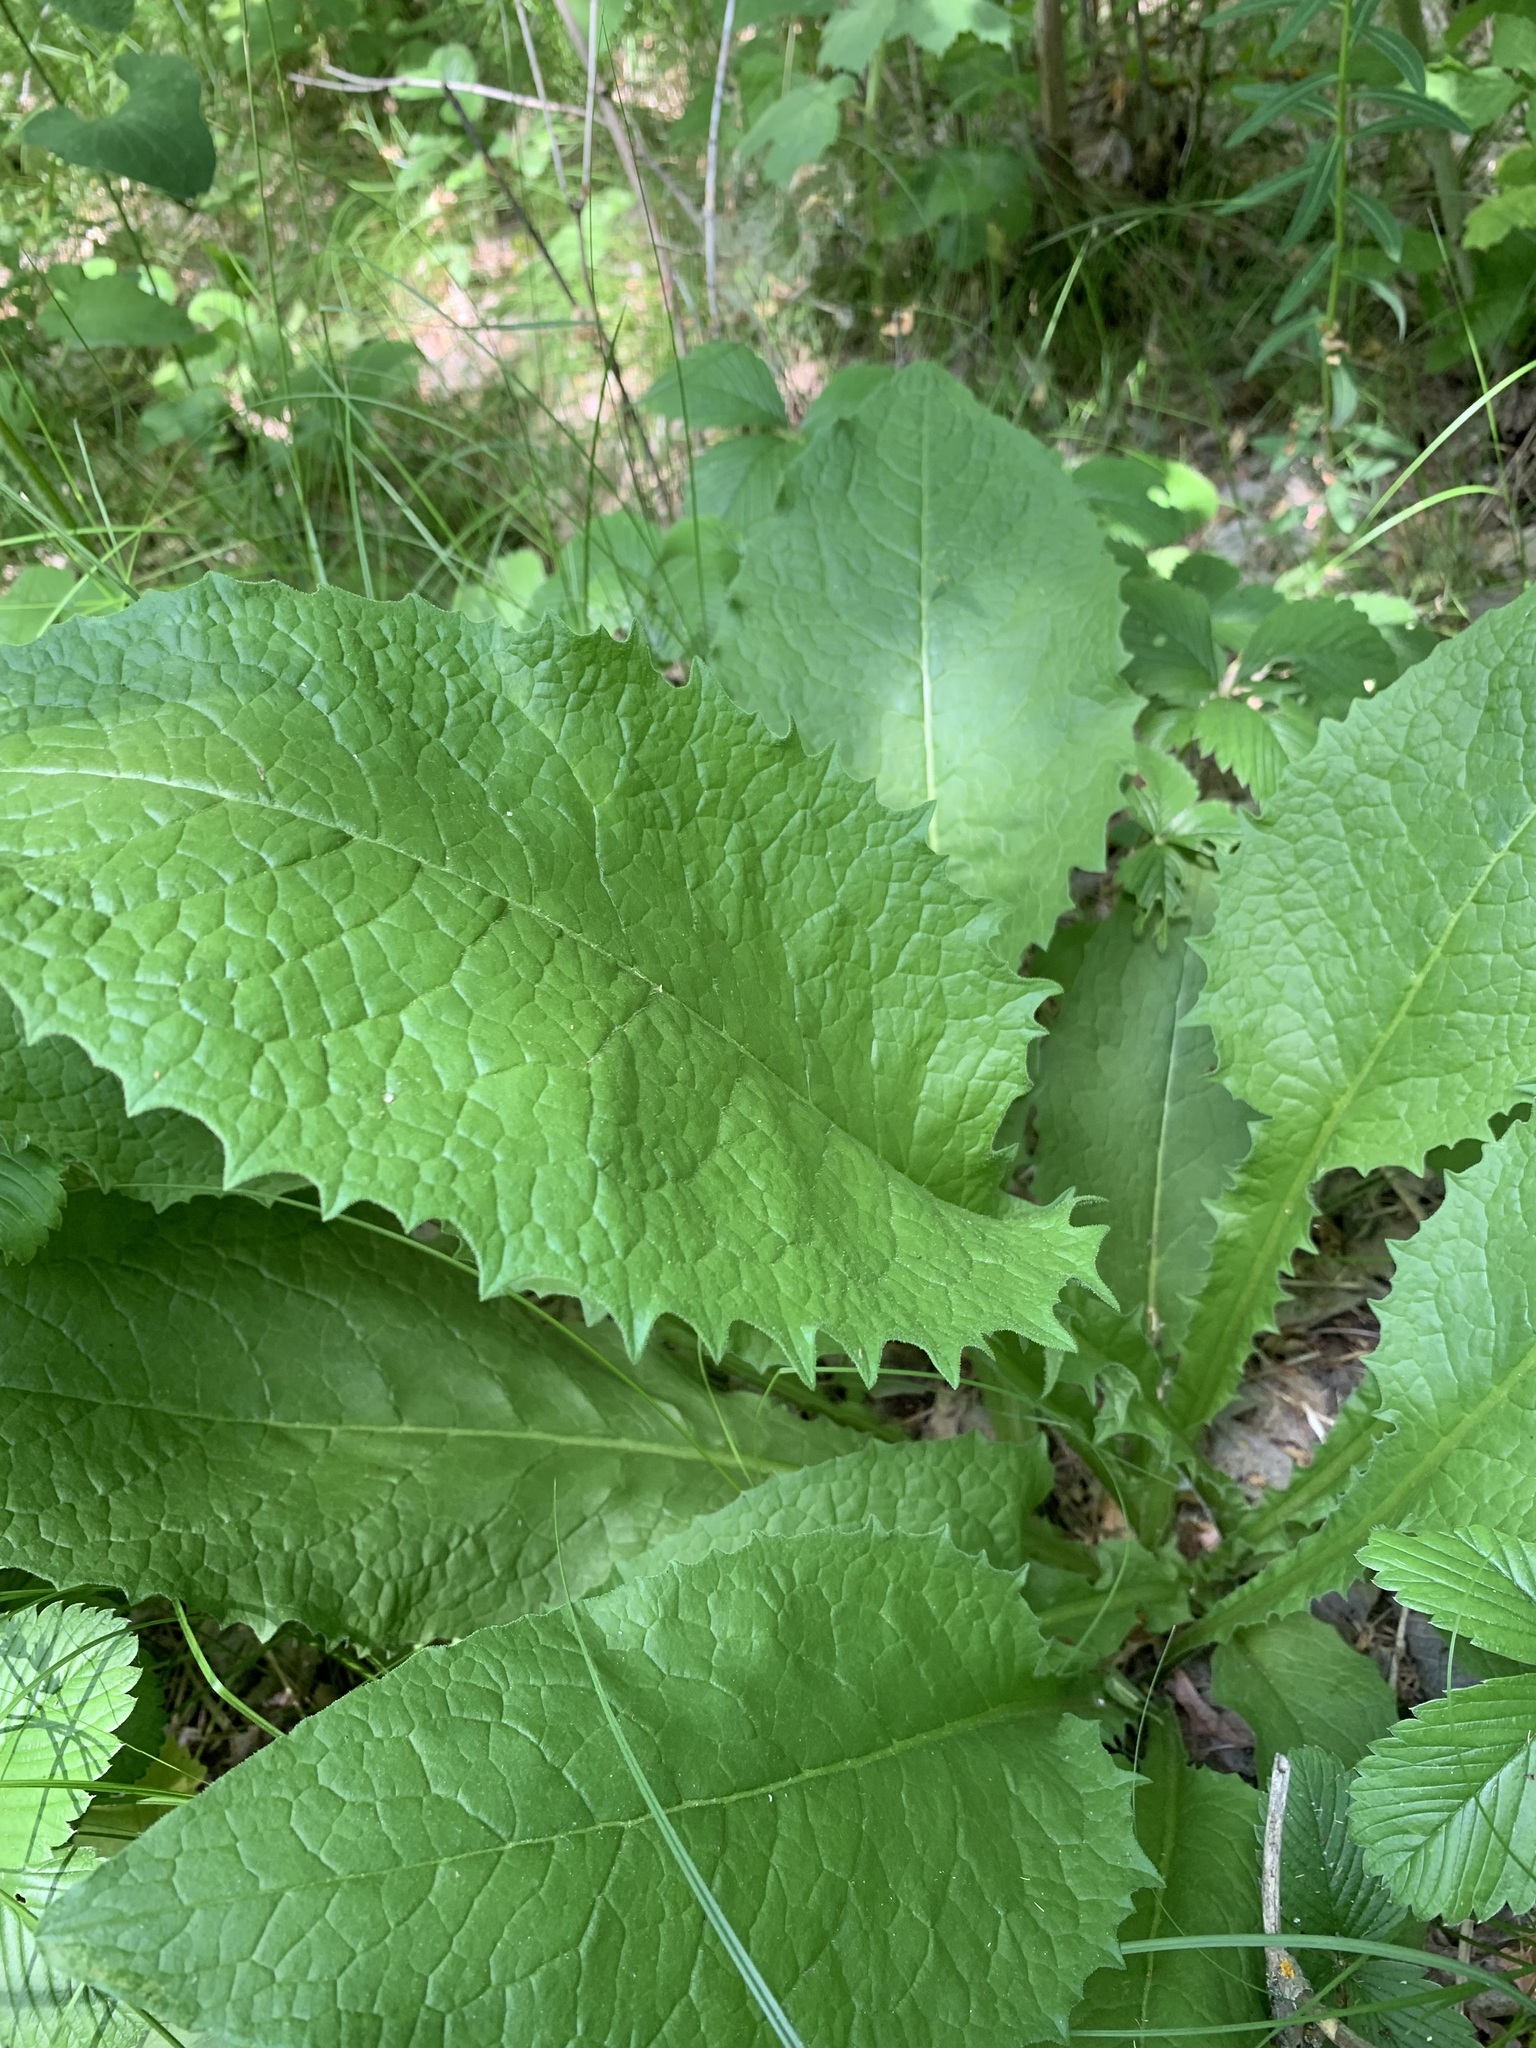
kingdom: Plantae
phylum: Tracheophyta
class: Magnoliopsida
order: Asterales
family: Asteraceae
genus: Crepis
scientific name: Crepis sibirica
